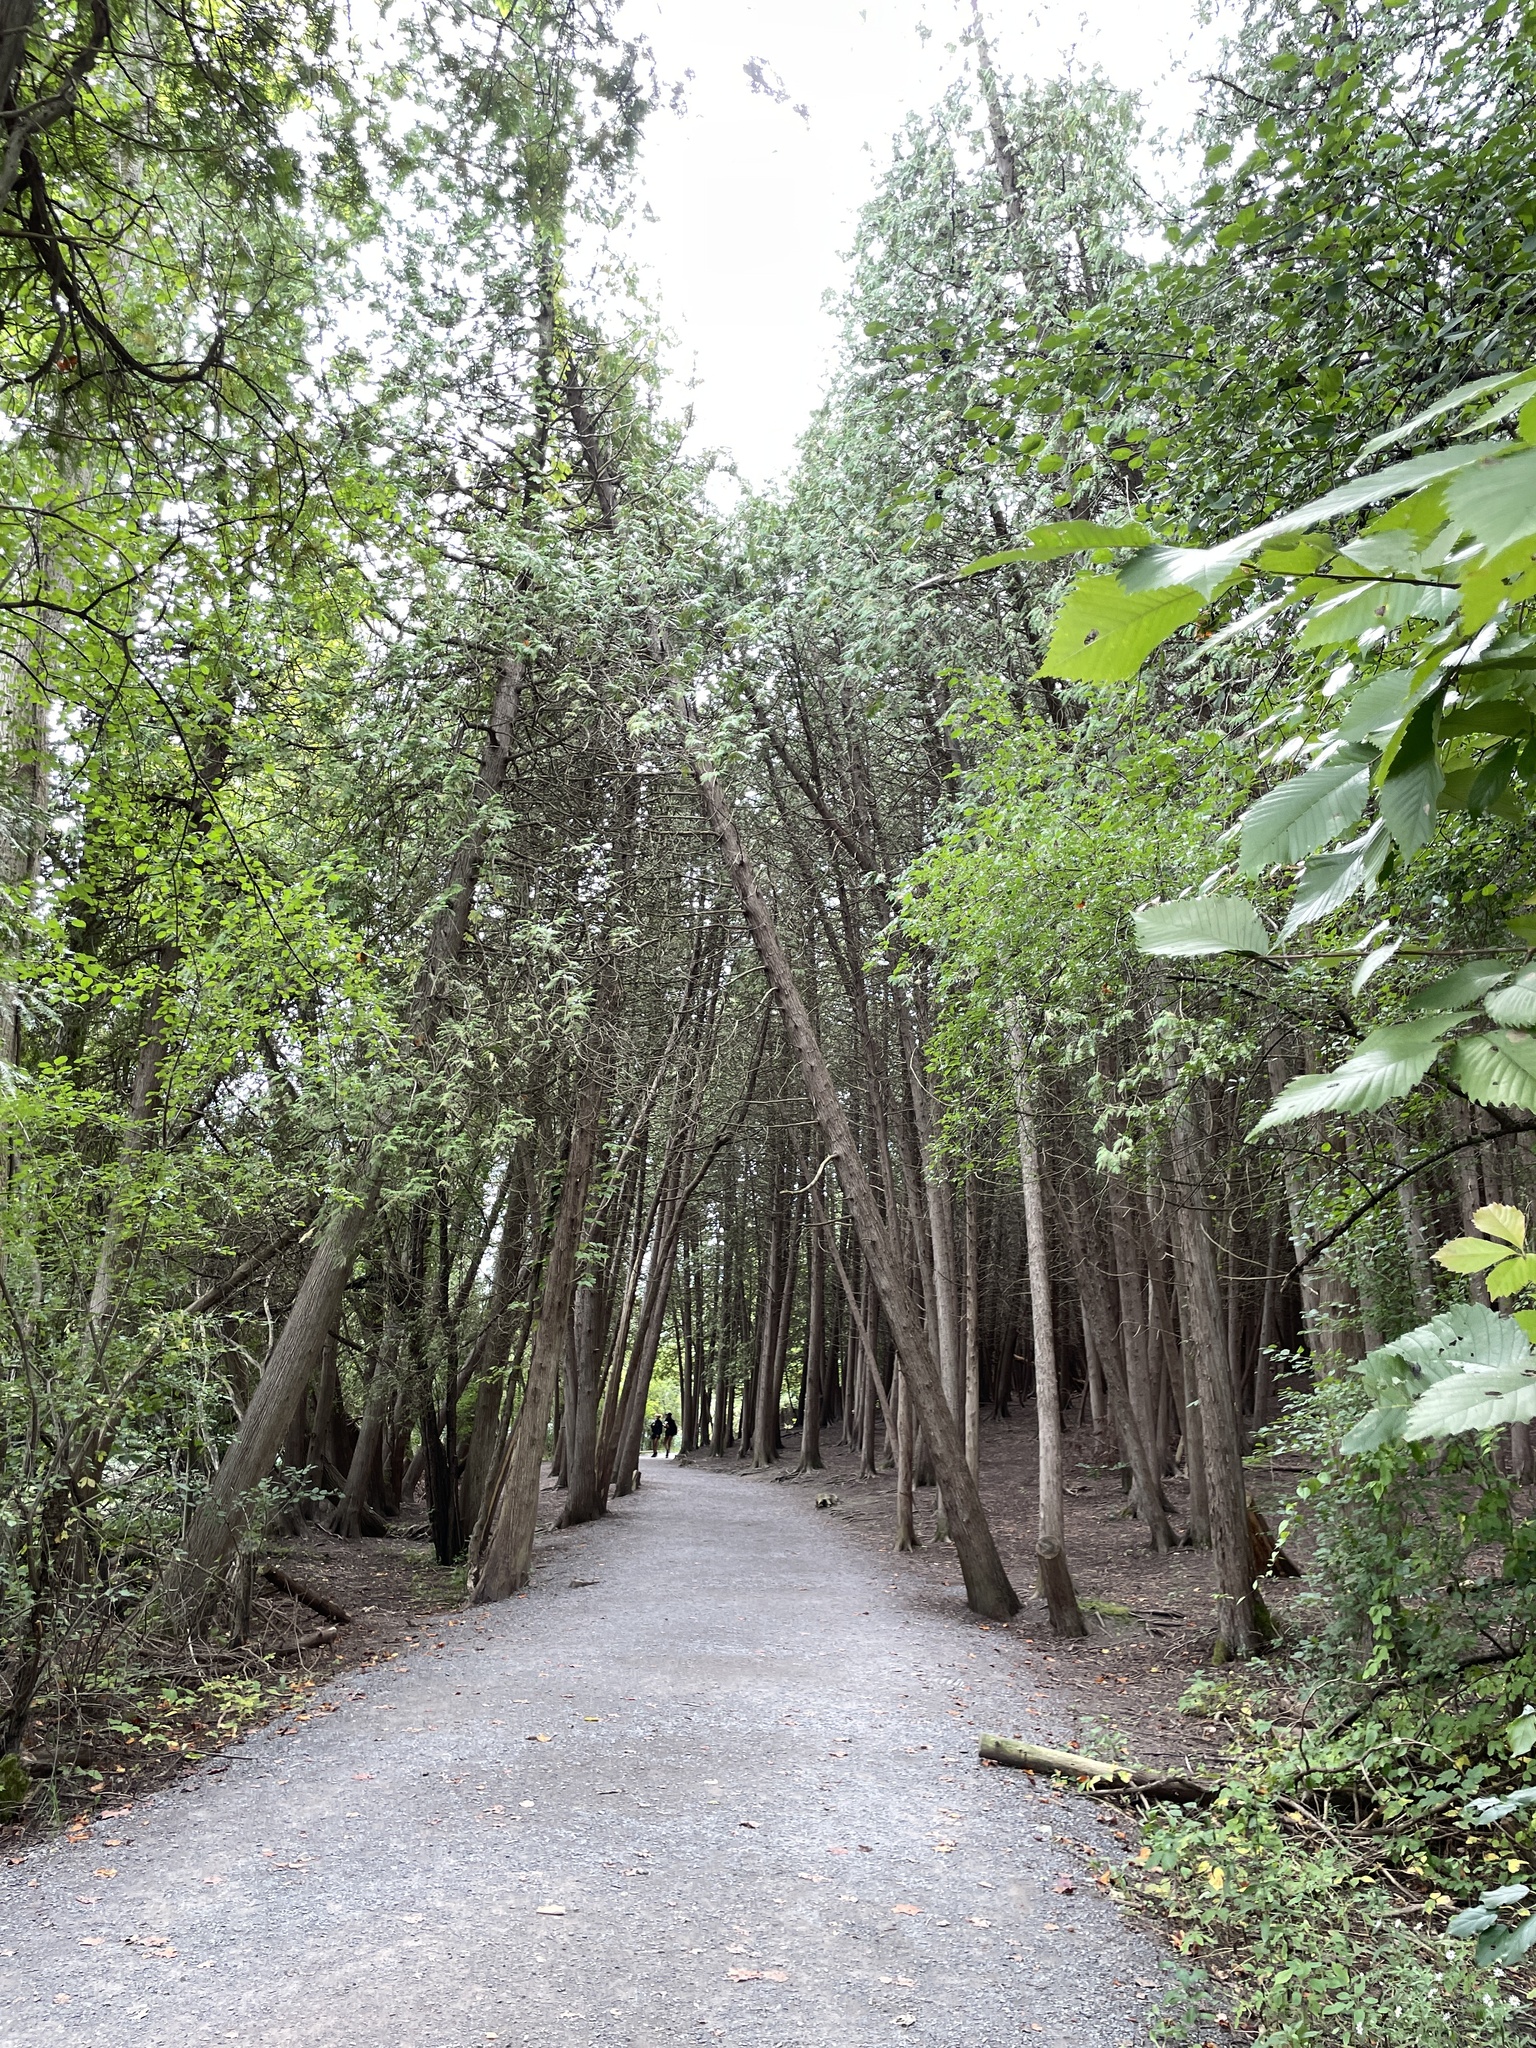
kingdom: Plantae
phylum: Tracheophyta
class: Pinopsida
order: Pinales
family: Cupressaceae
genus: Thuja
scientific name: Thuja occidentalis
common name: Northern white-cedar
